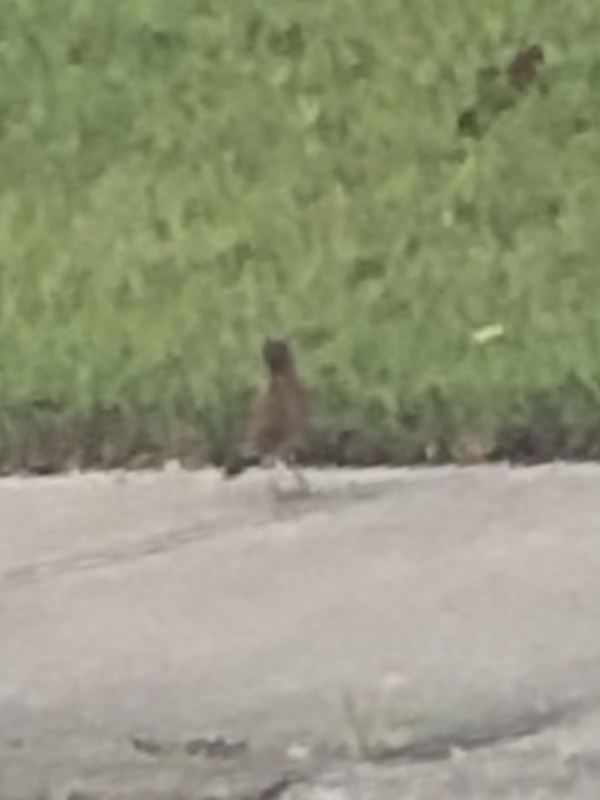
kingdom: Animalia
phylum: Chordata
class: Aves
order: Passeriformes
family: Turdidae
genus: Turdus
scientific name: Turdus migratorius
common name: American robin
